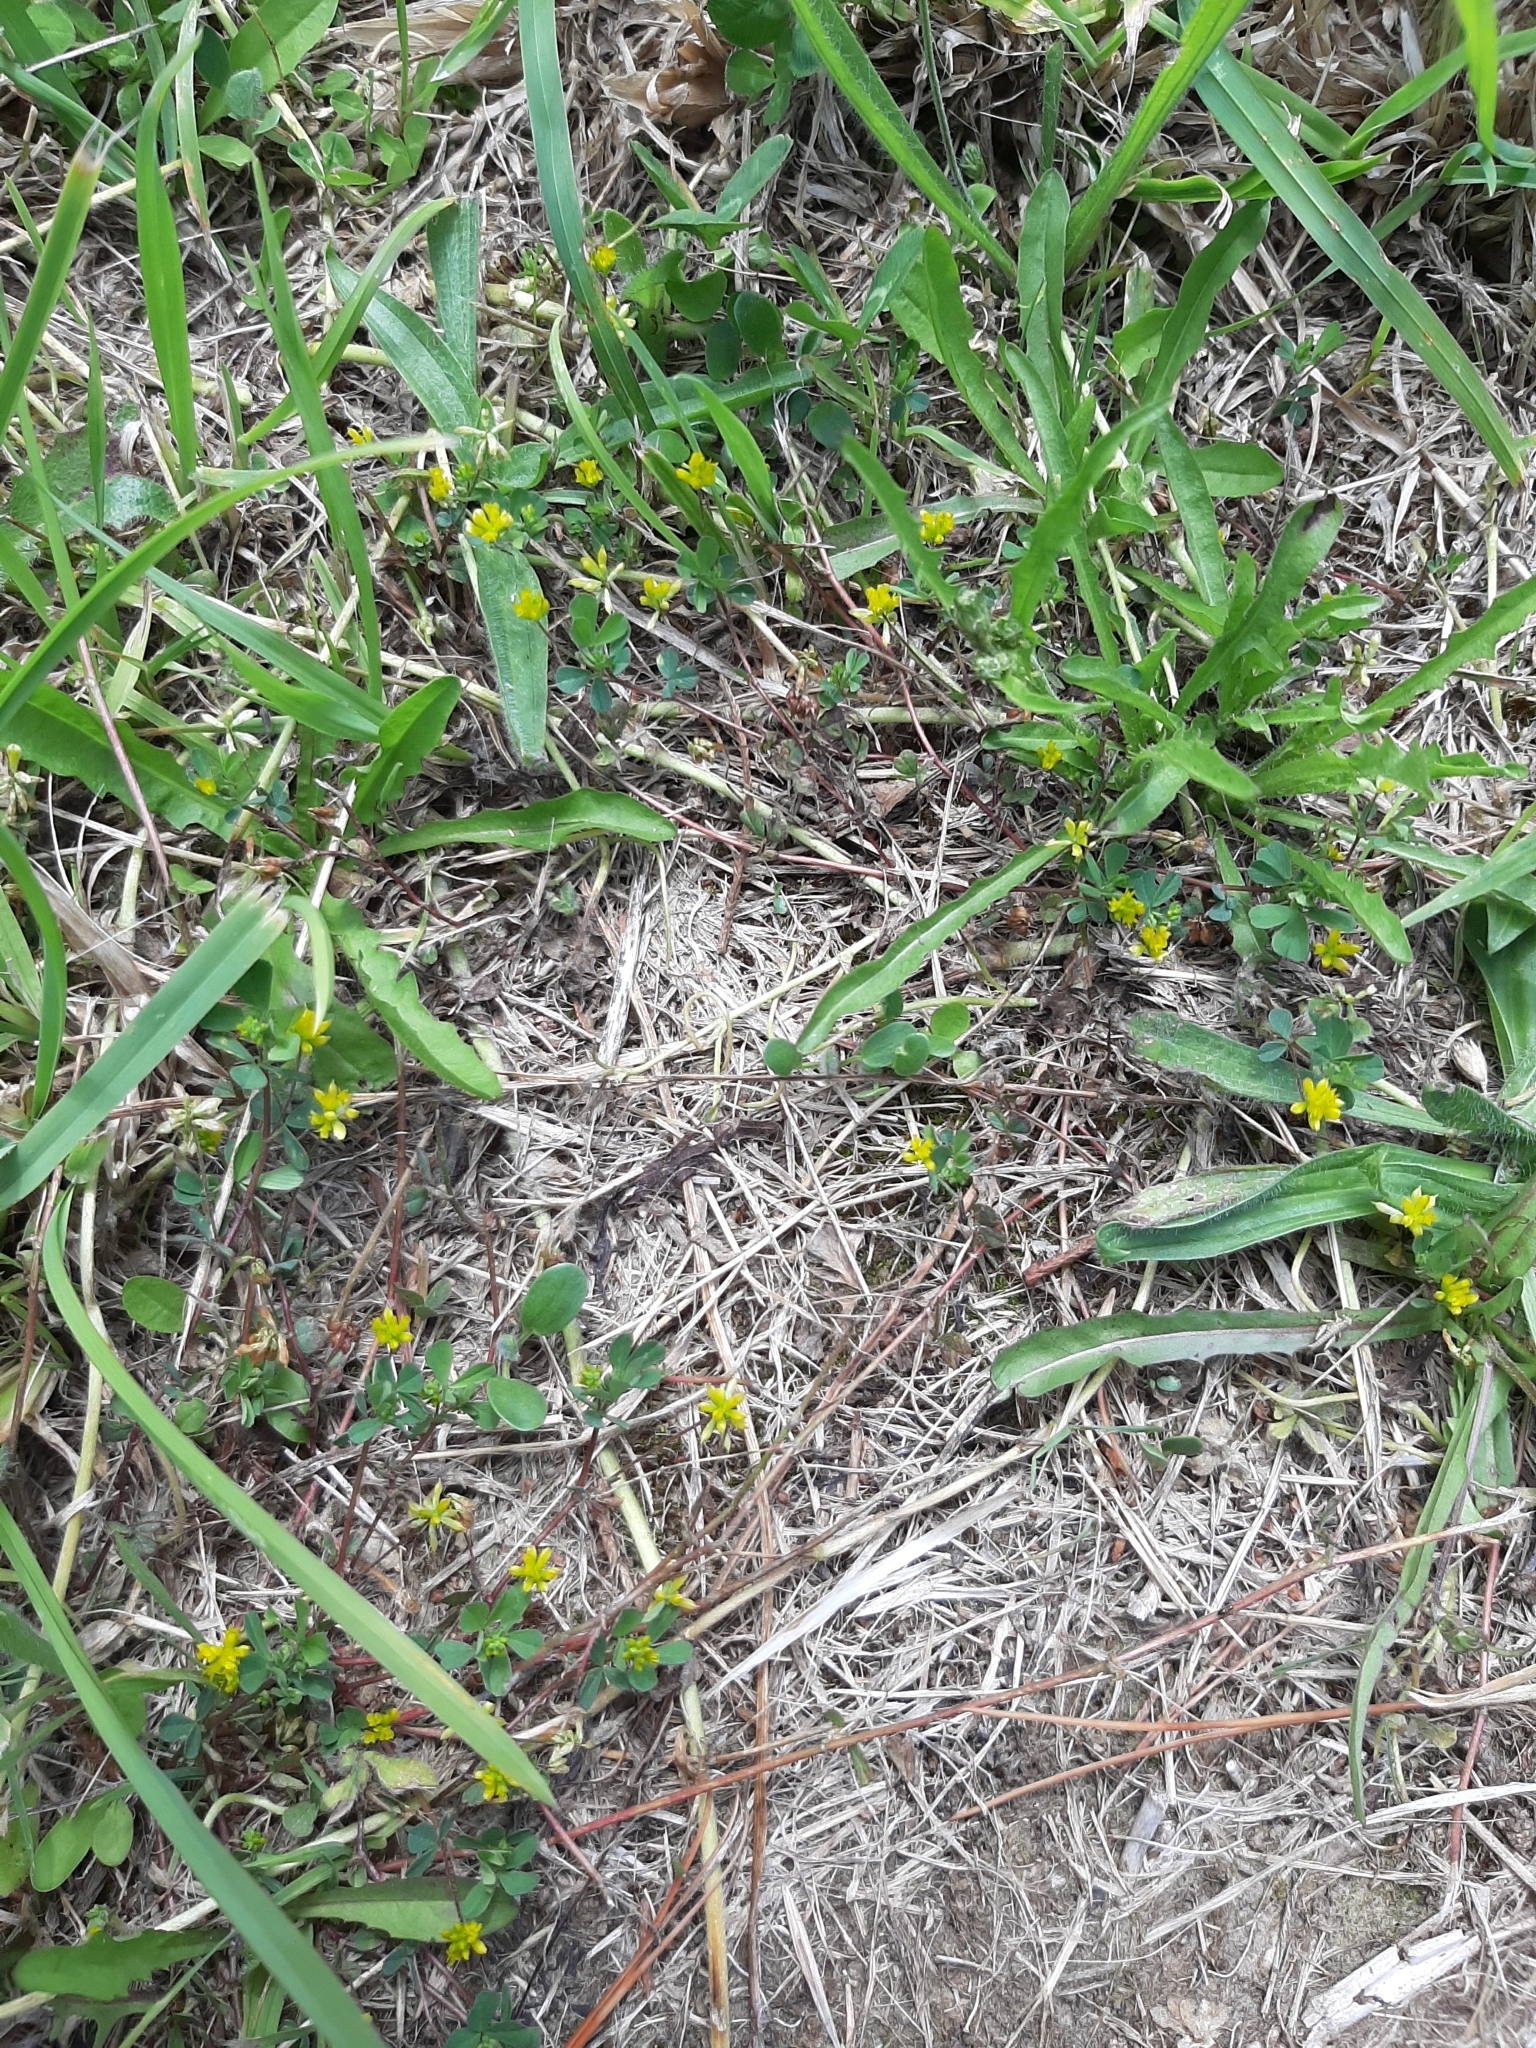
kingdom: Plantae
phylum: Tracheophyta
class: Magnoliopsida
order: Fabales
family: Fabaceae
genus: Trifolium
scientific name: Trifolium dubium
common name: Suckling clover
